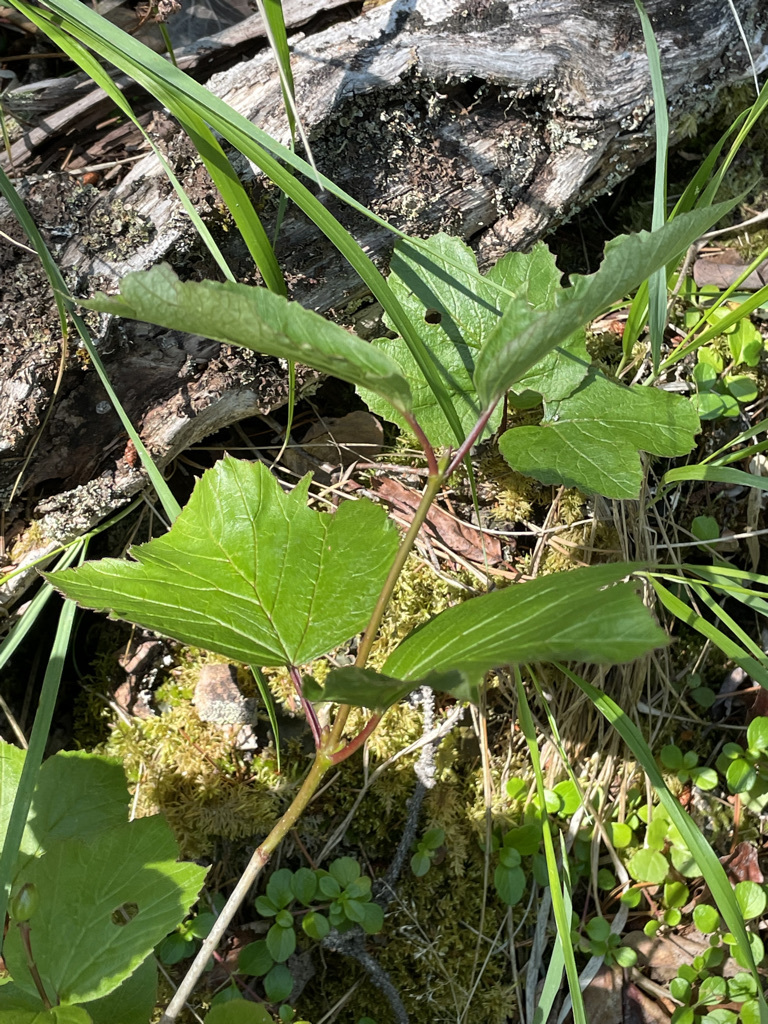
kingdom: Plantae
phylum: Tracheophyta
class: Magnoliopsida
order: Dipsacales
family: Viburnaceae
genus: Viburnum
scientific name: Viburnum edule
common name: Mooseberry
